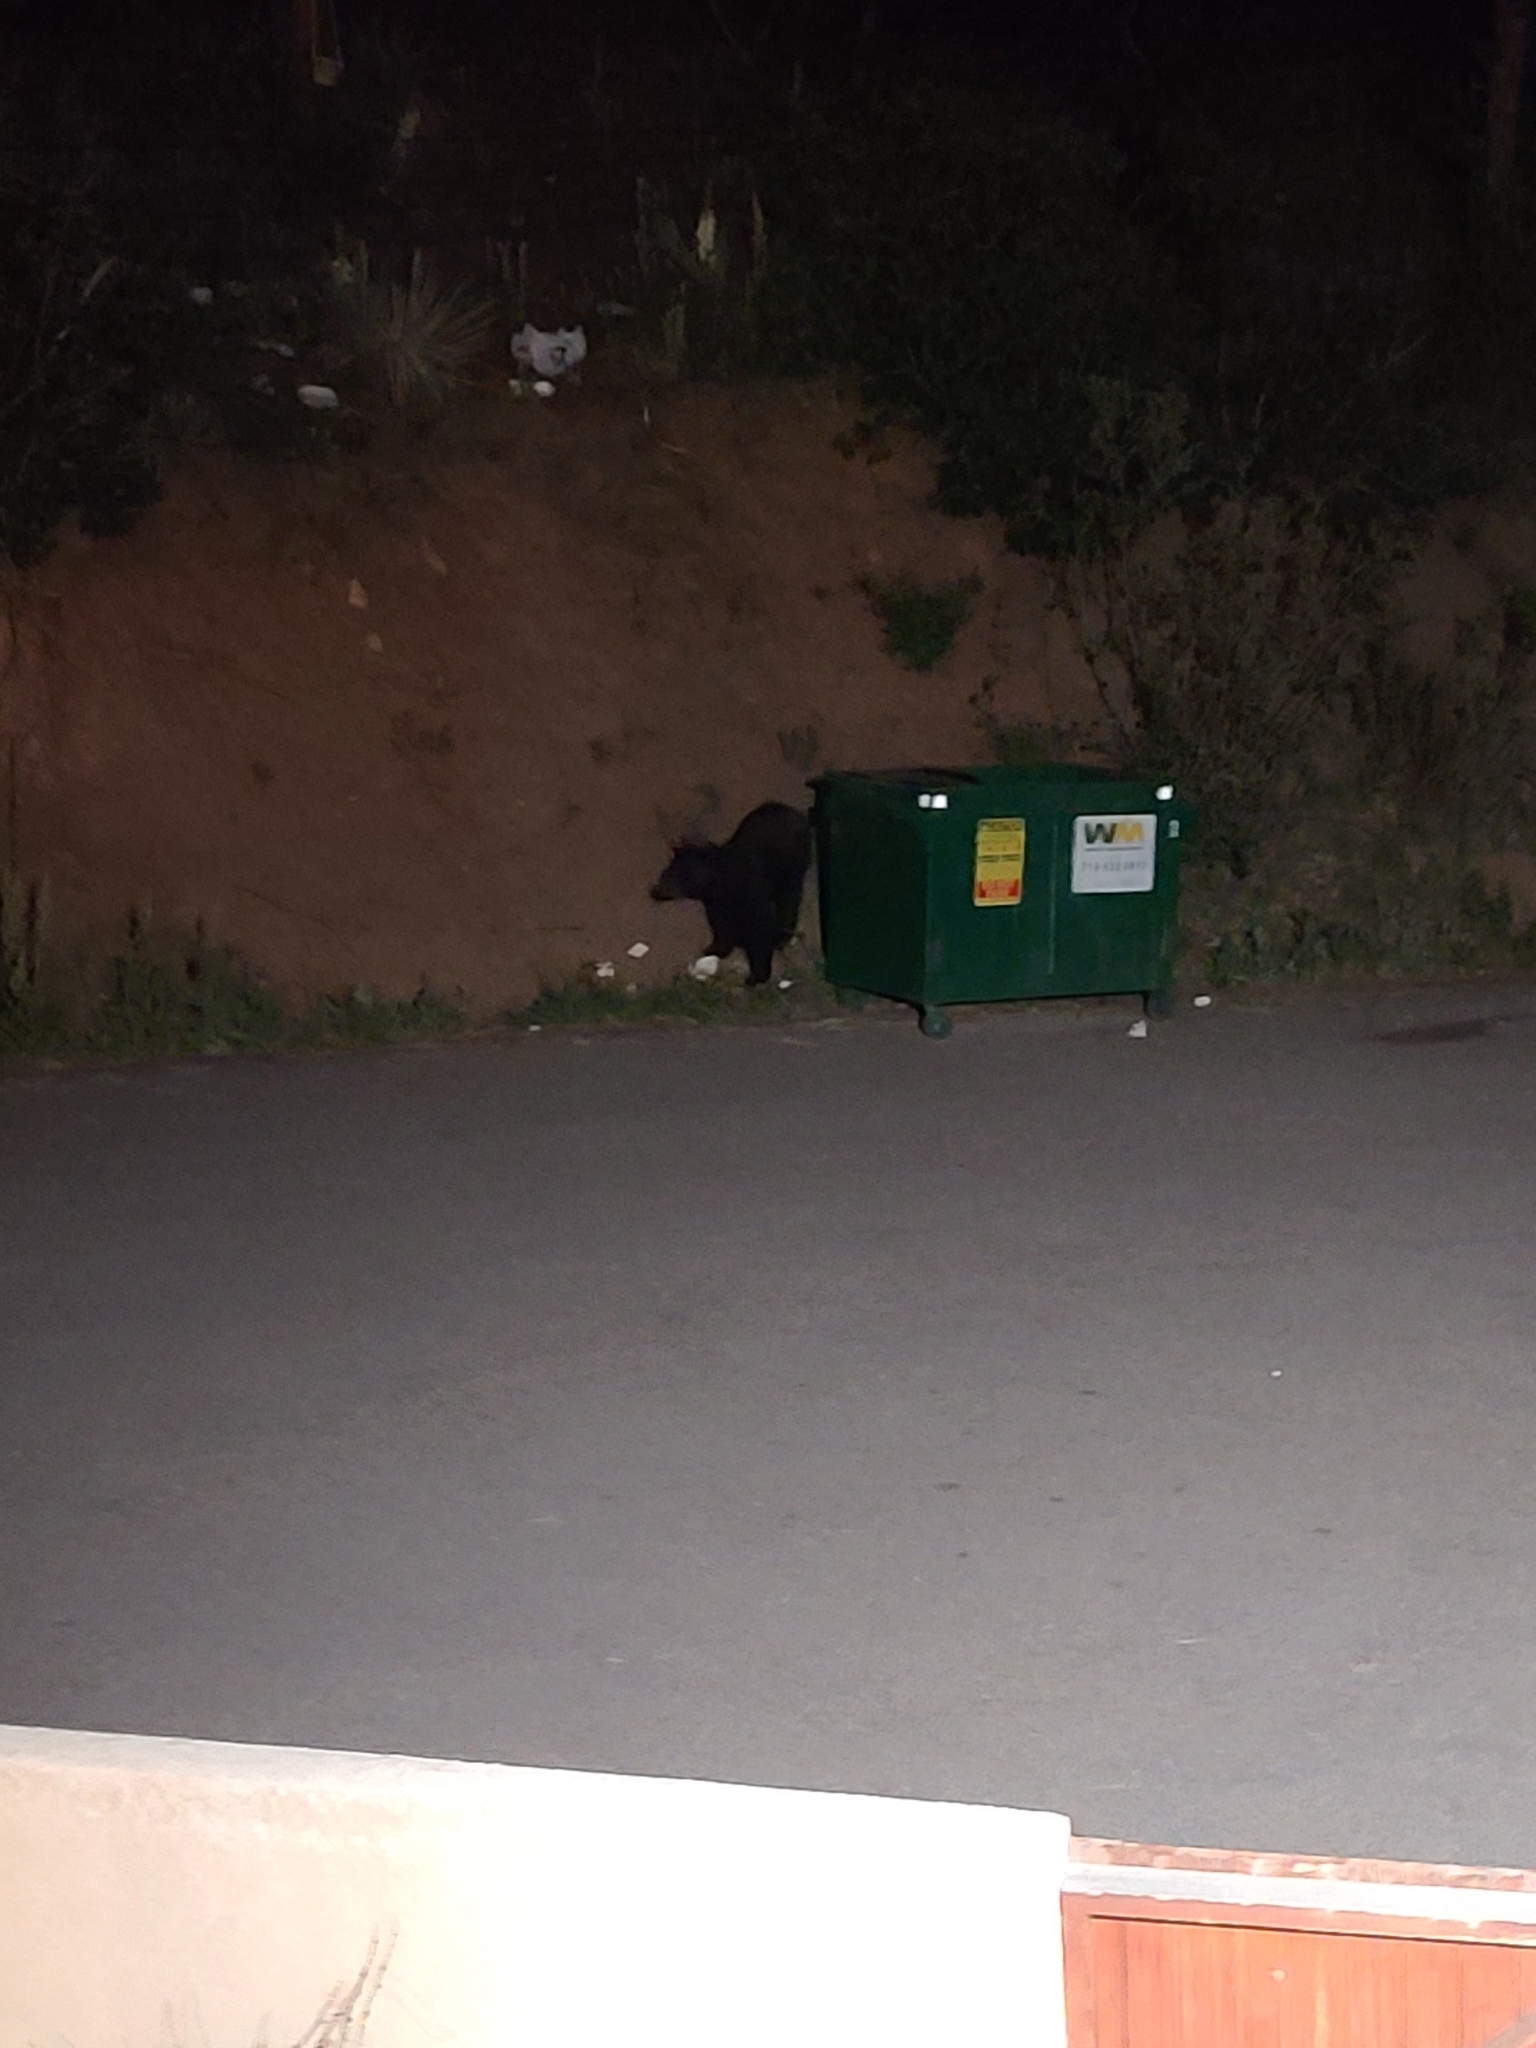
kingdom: Animalia
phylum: Chordata
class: Mammalia
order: Carnivora
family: Ursidae
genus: Ursus
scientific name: Ursus americanus
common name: American black bear
